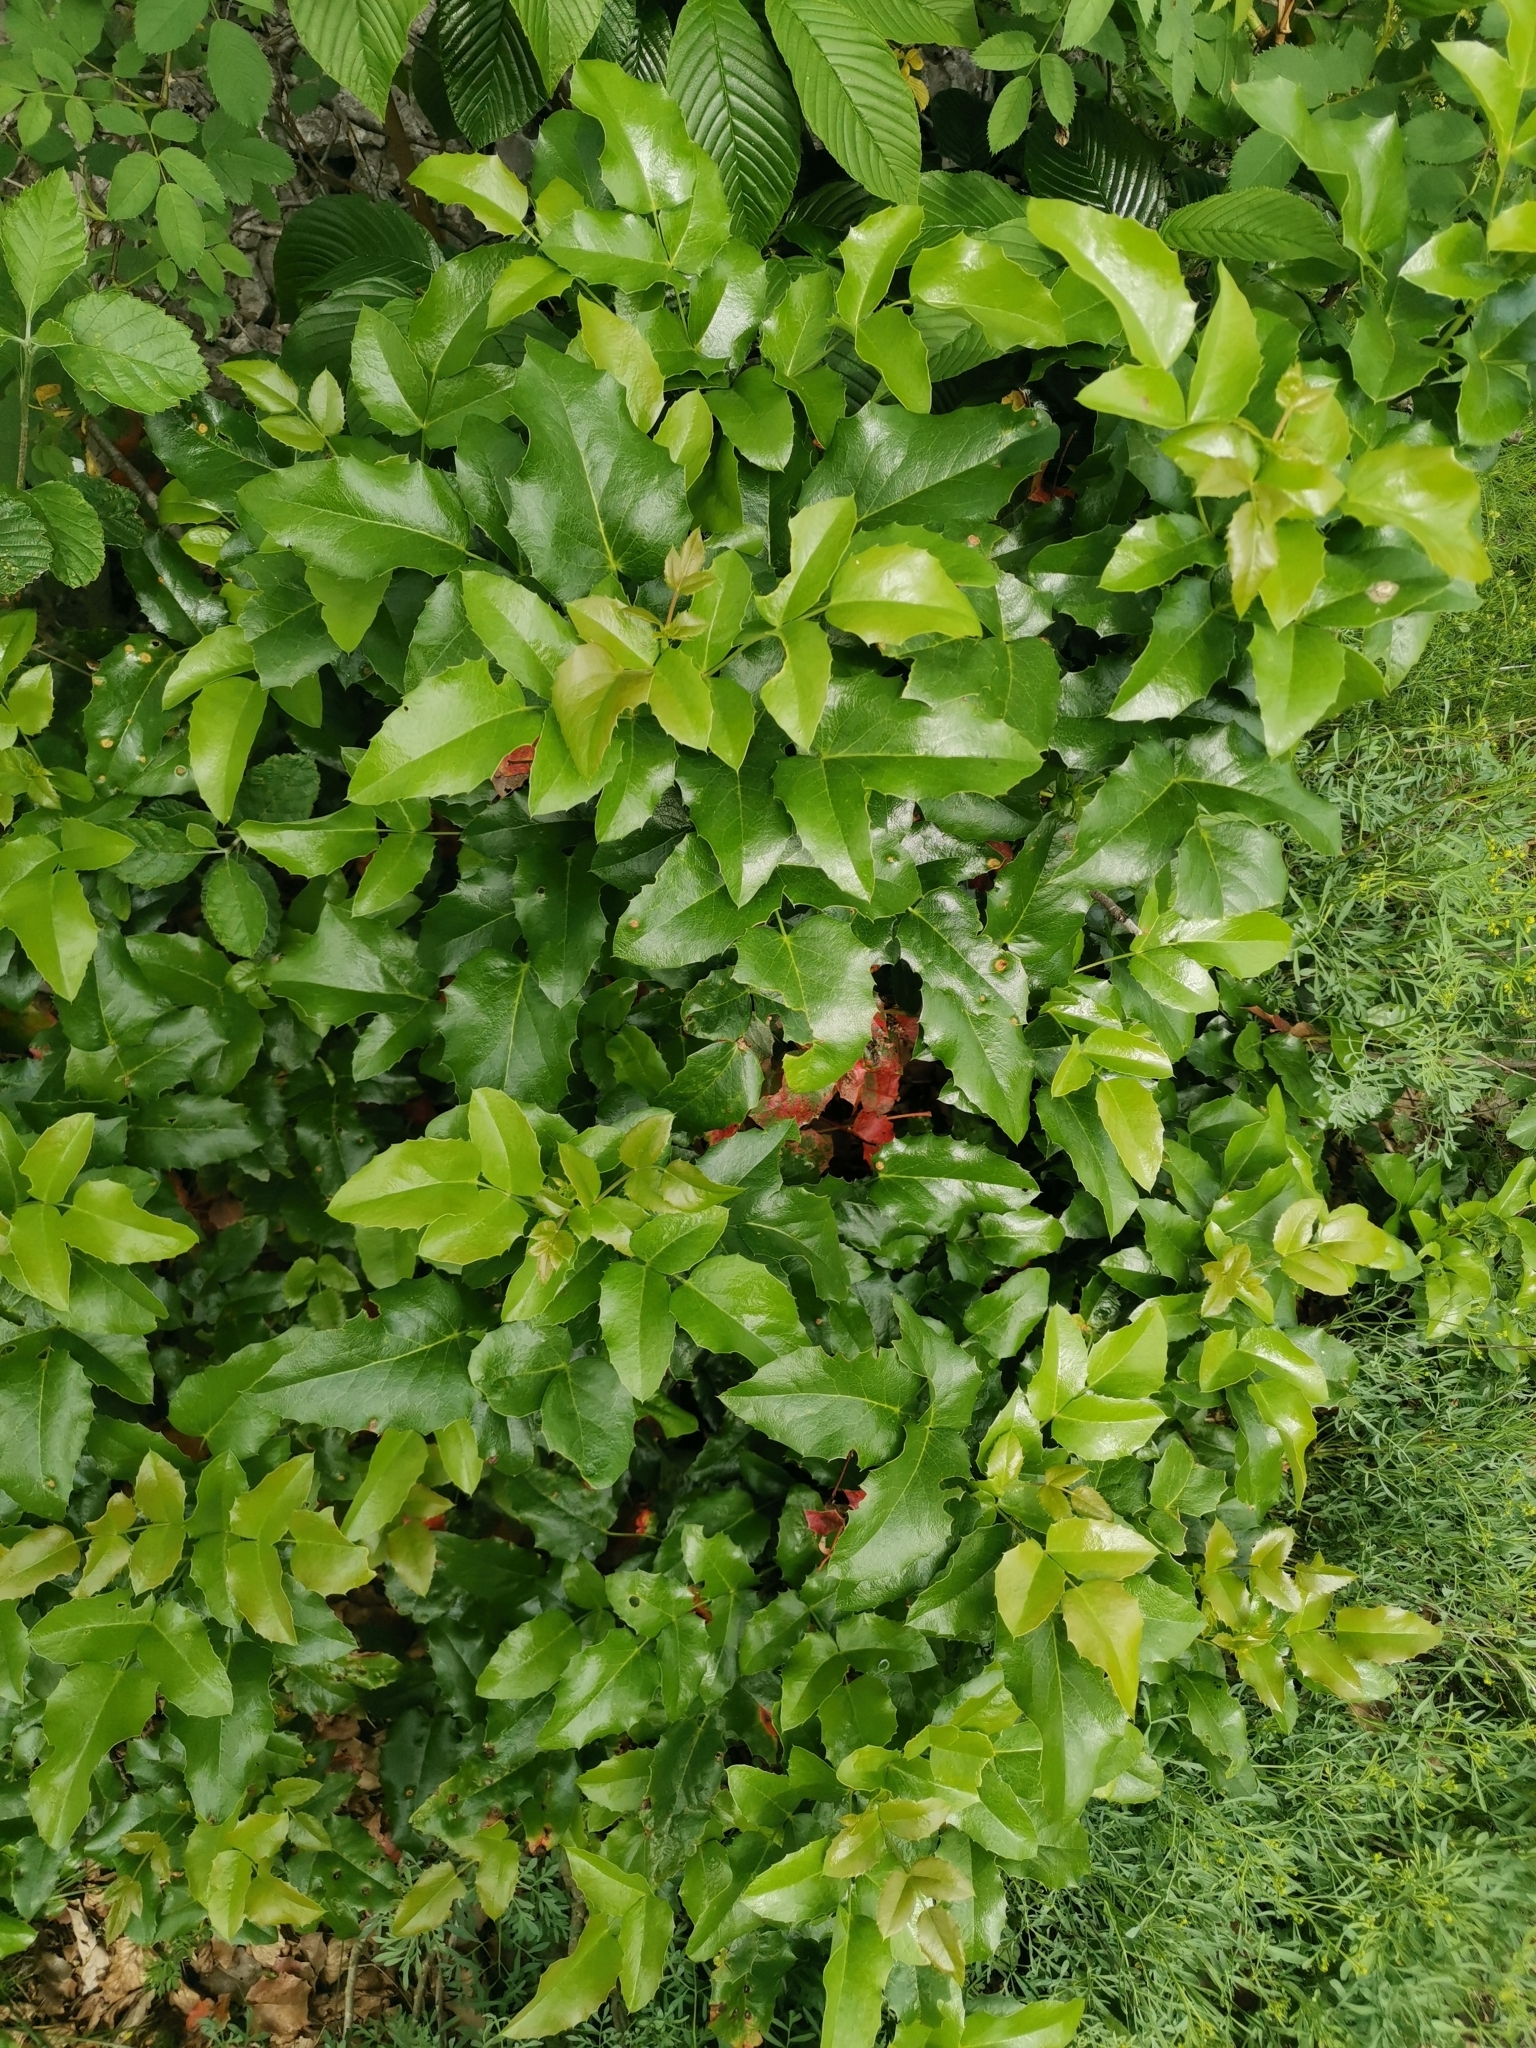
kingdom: Plantae
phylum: Tracheophyta
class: Magnoliopsida
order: Ranunculales
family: Berberidaceae
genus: Mahonia
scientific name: Mahonia aquifolium
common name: Oregon-grape
